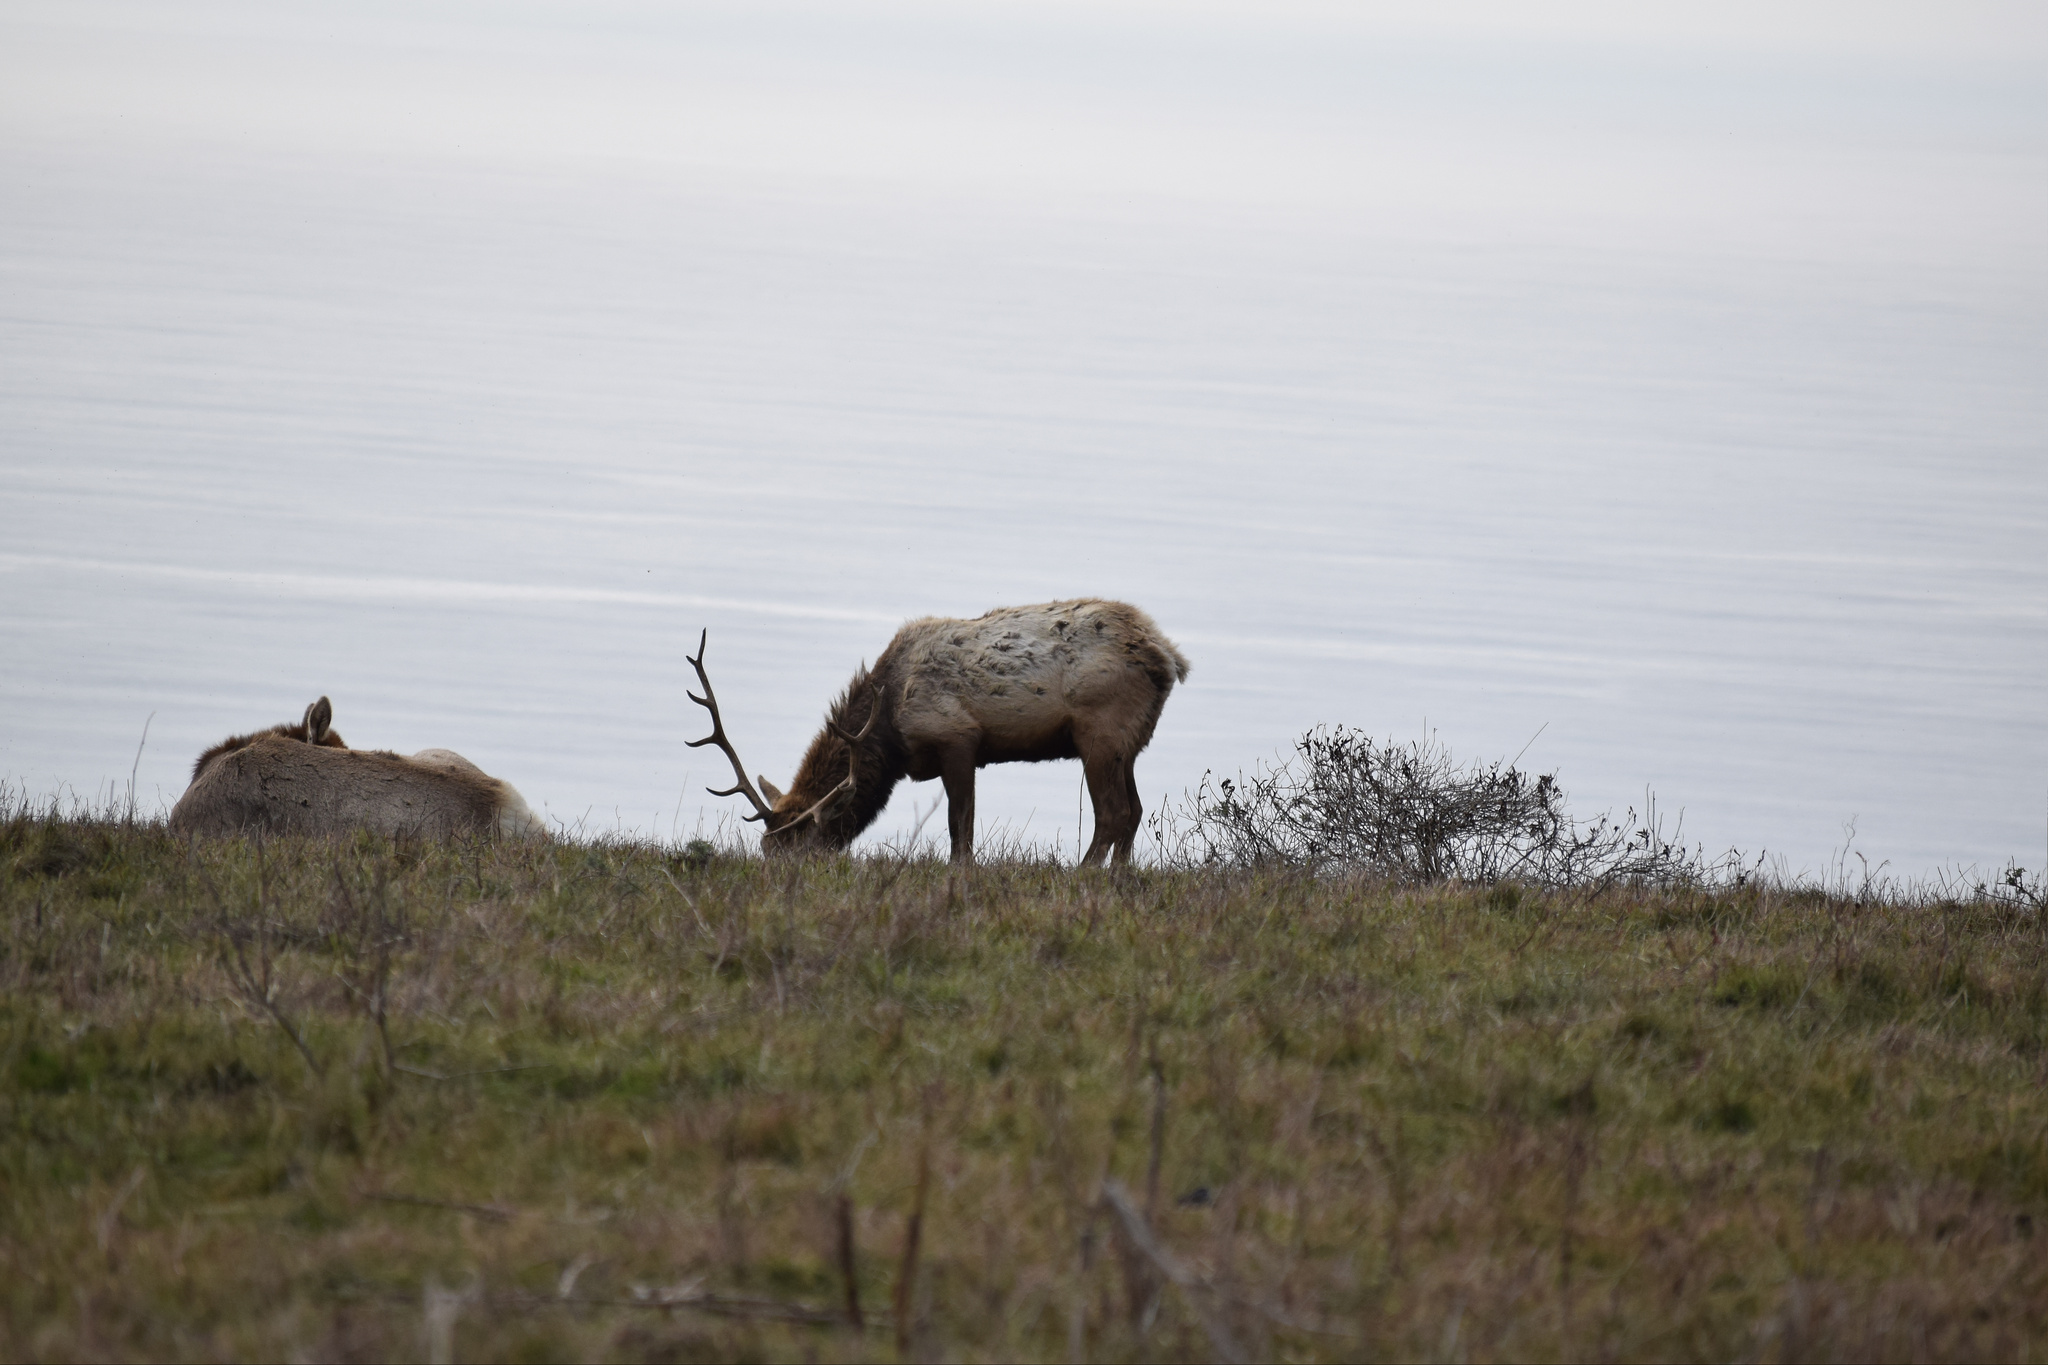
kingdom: Animalia
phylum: Chordata
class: Mammalia
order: Artiodactyla
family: Cervidae
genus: Cervus
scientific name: Cervus elaphus
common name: Red deer
